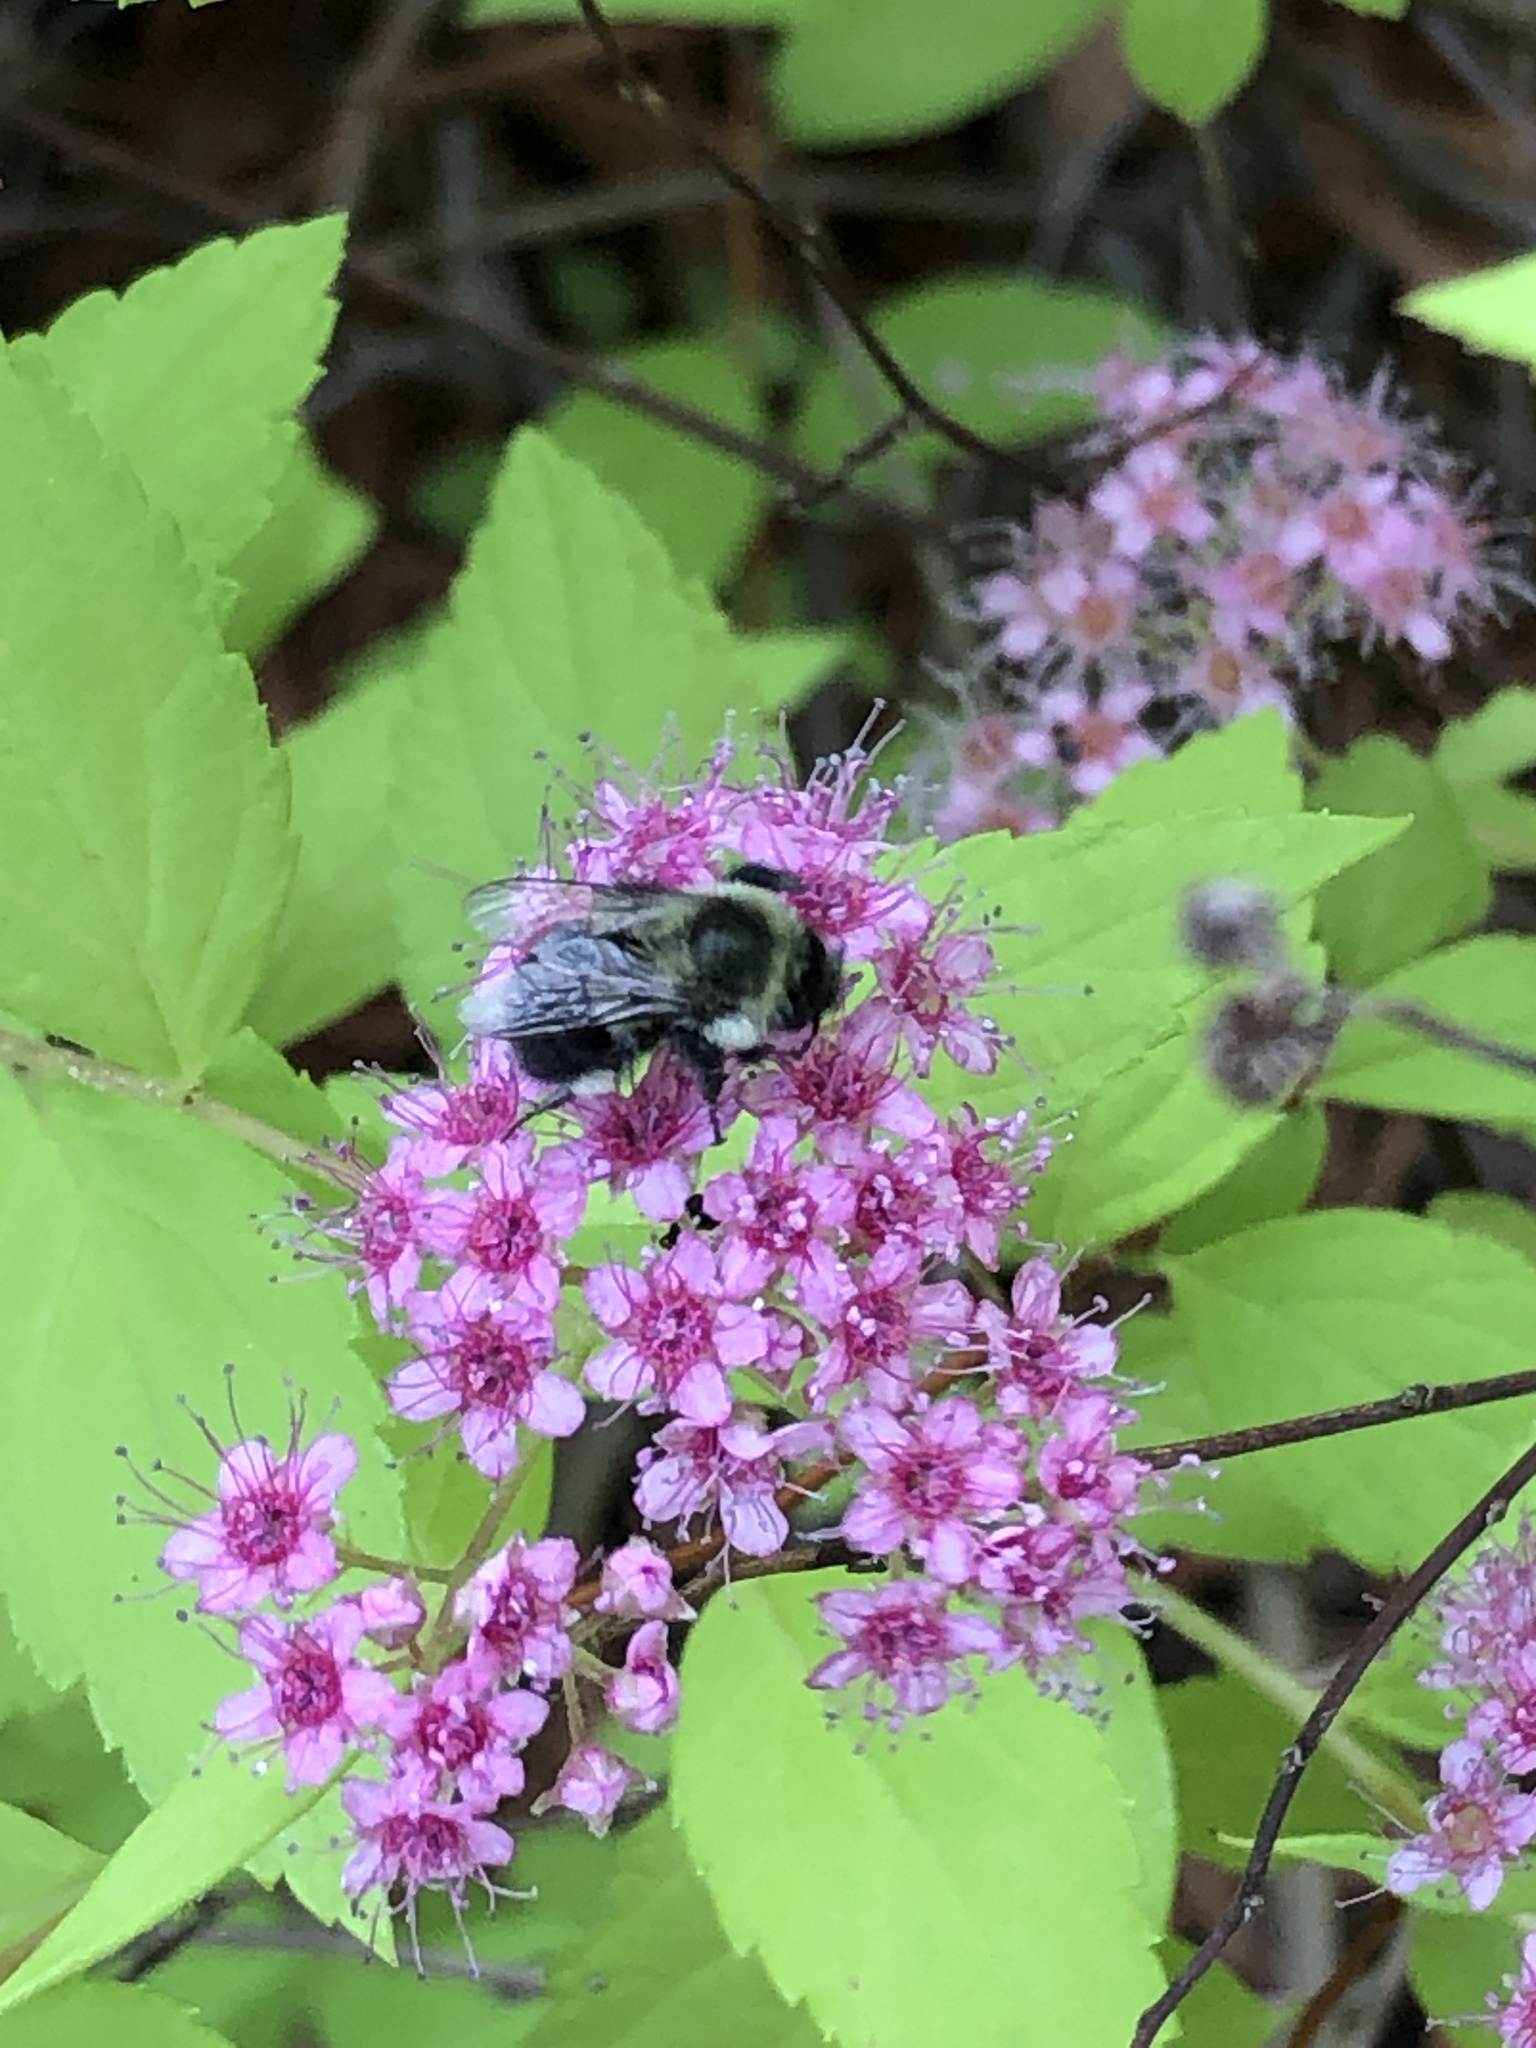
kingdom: Animalia
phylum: Arthropoda
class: Insecta
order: Hymenoptera
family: Apidae
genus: Bombus
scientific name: Bombus impatiens
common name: Common eastern bumble bee
